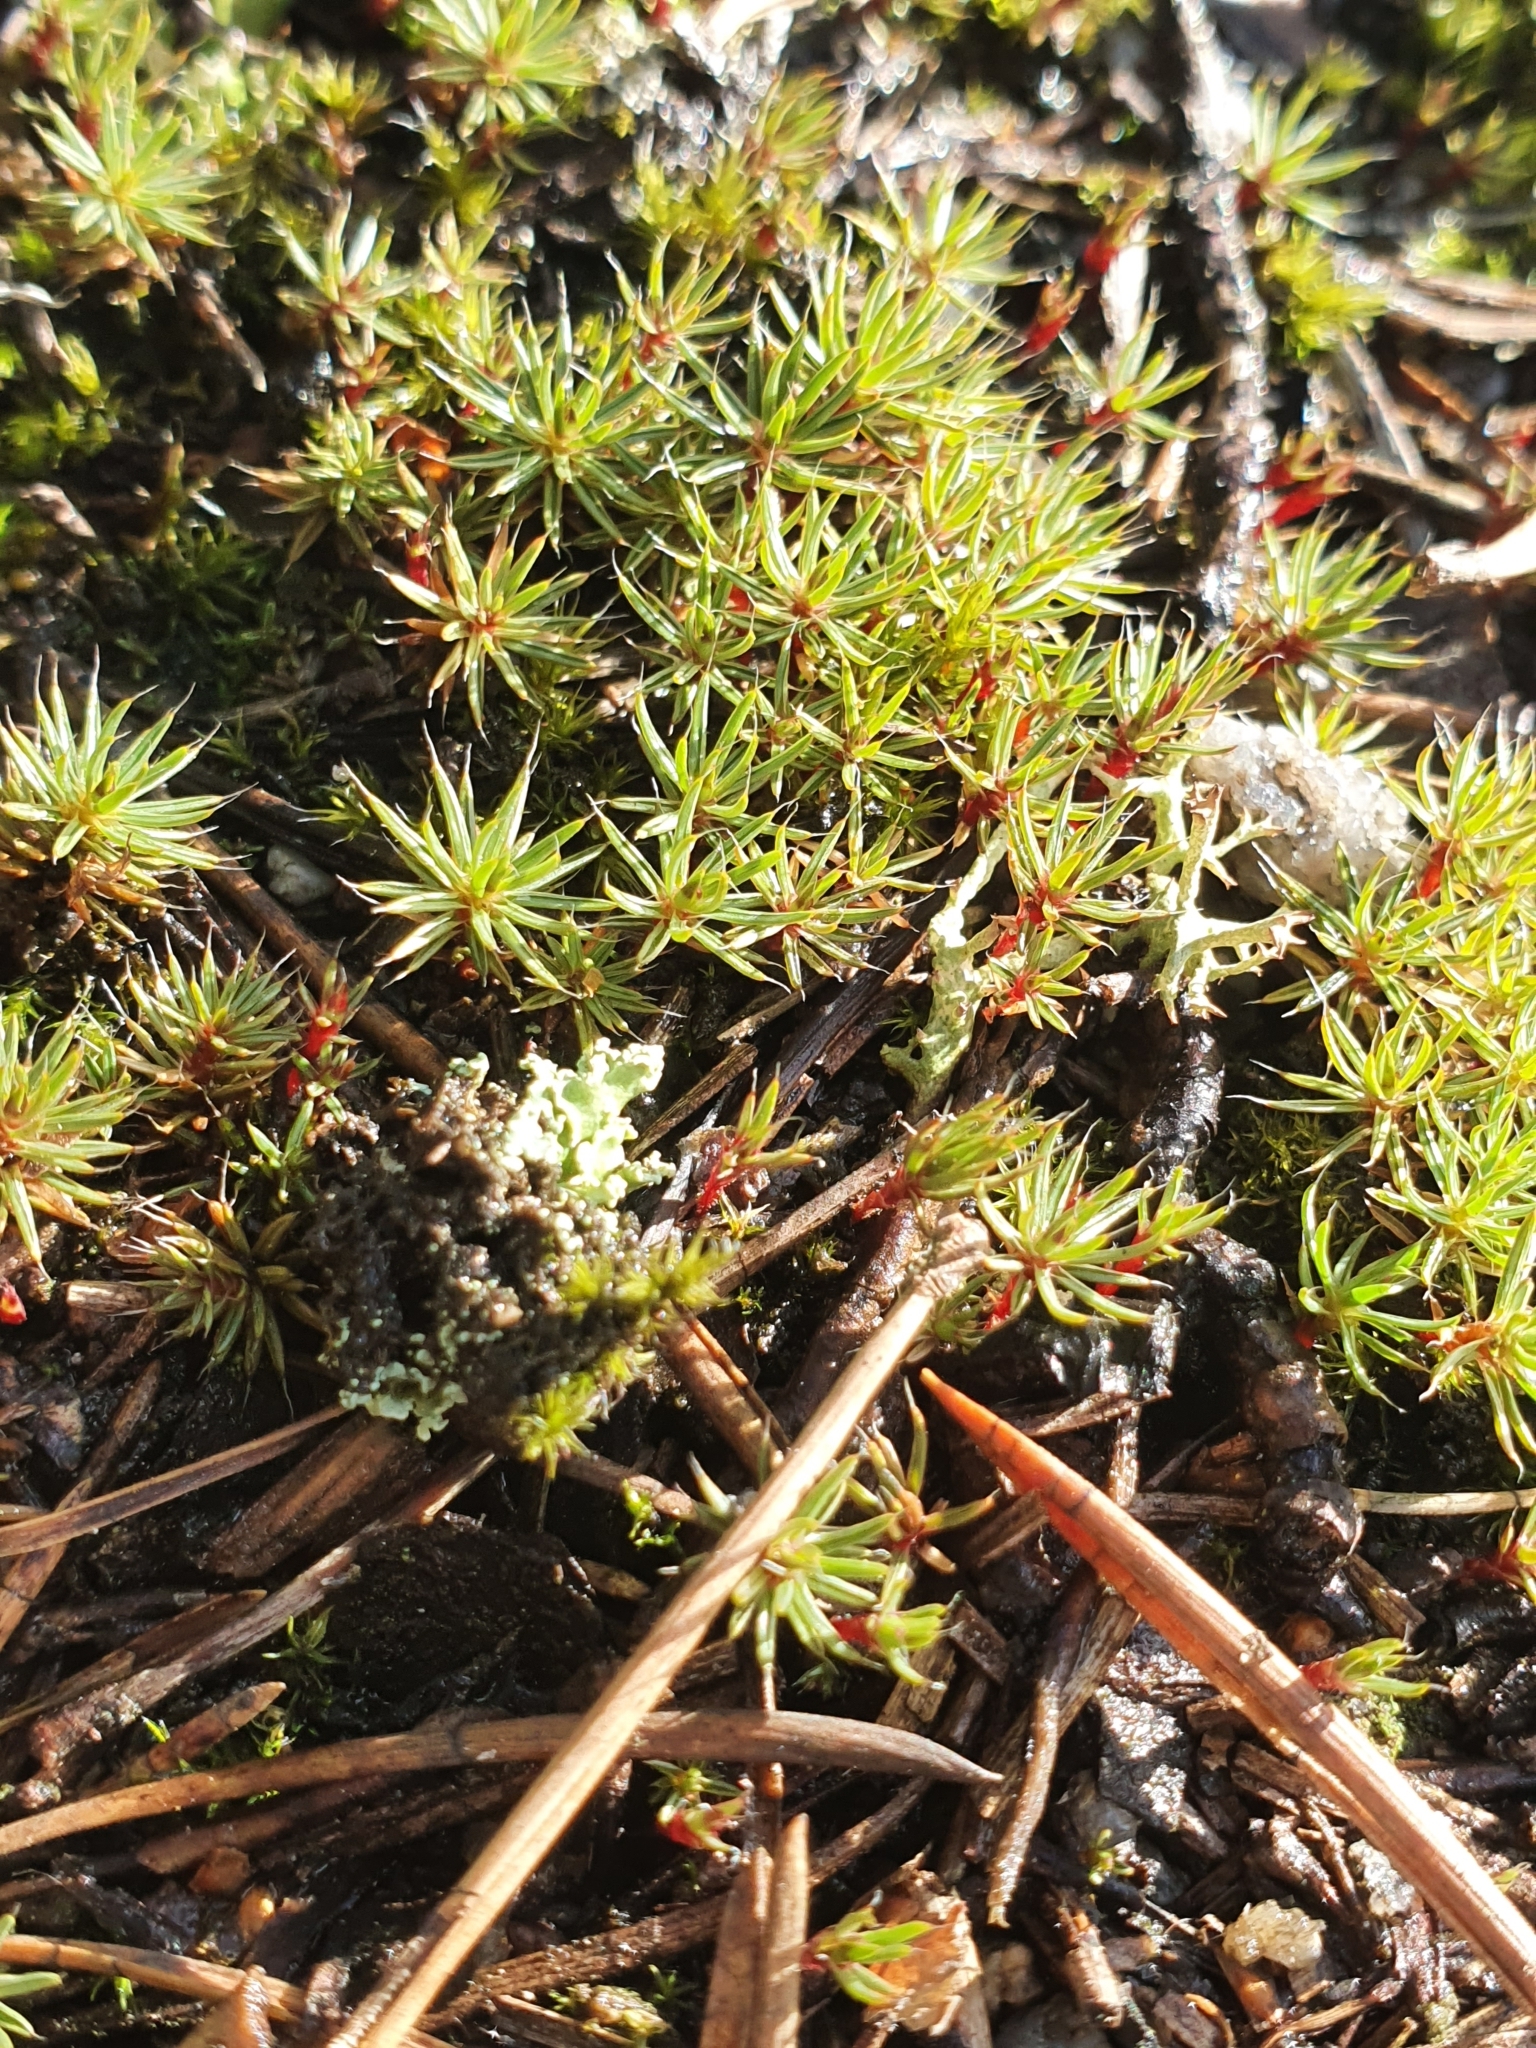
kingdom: Plantae
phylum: Bryophyta
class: Polytrichopsida
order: Polytrichales
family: Polytrichaceae
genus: Polytrichum
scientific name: Polytrichum piliferum
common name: Bristly haircap
